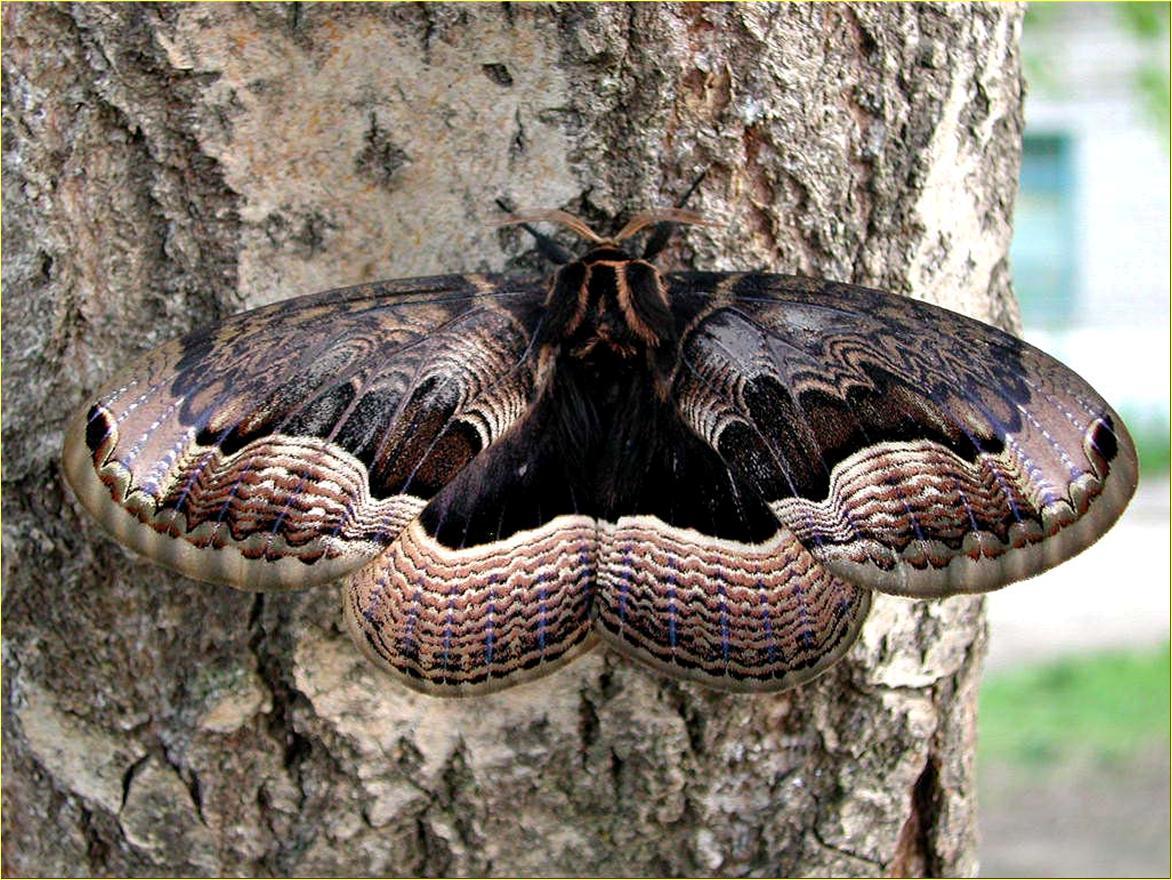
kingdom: Animalia
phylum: Arthropoda
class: Insecta
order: Lepidoptera
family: Brahmaeidae
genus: Brahmaea
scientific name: Brahmaea certhia
